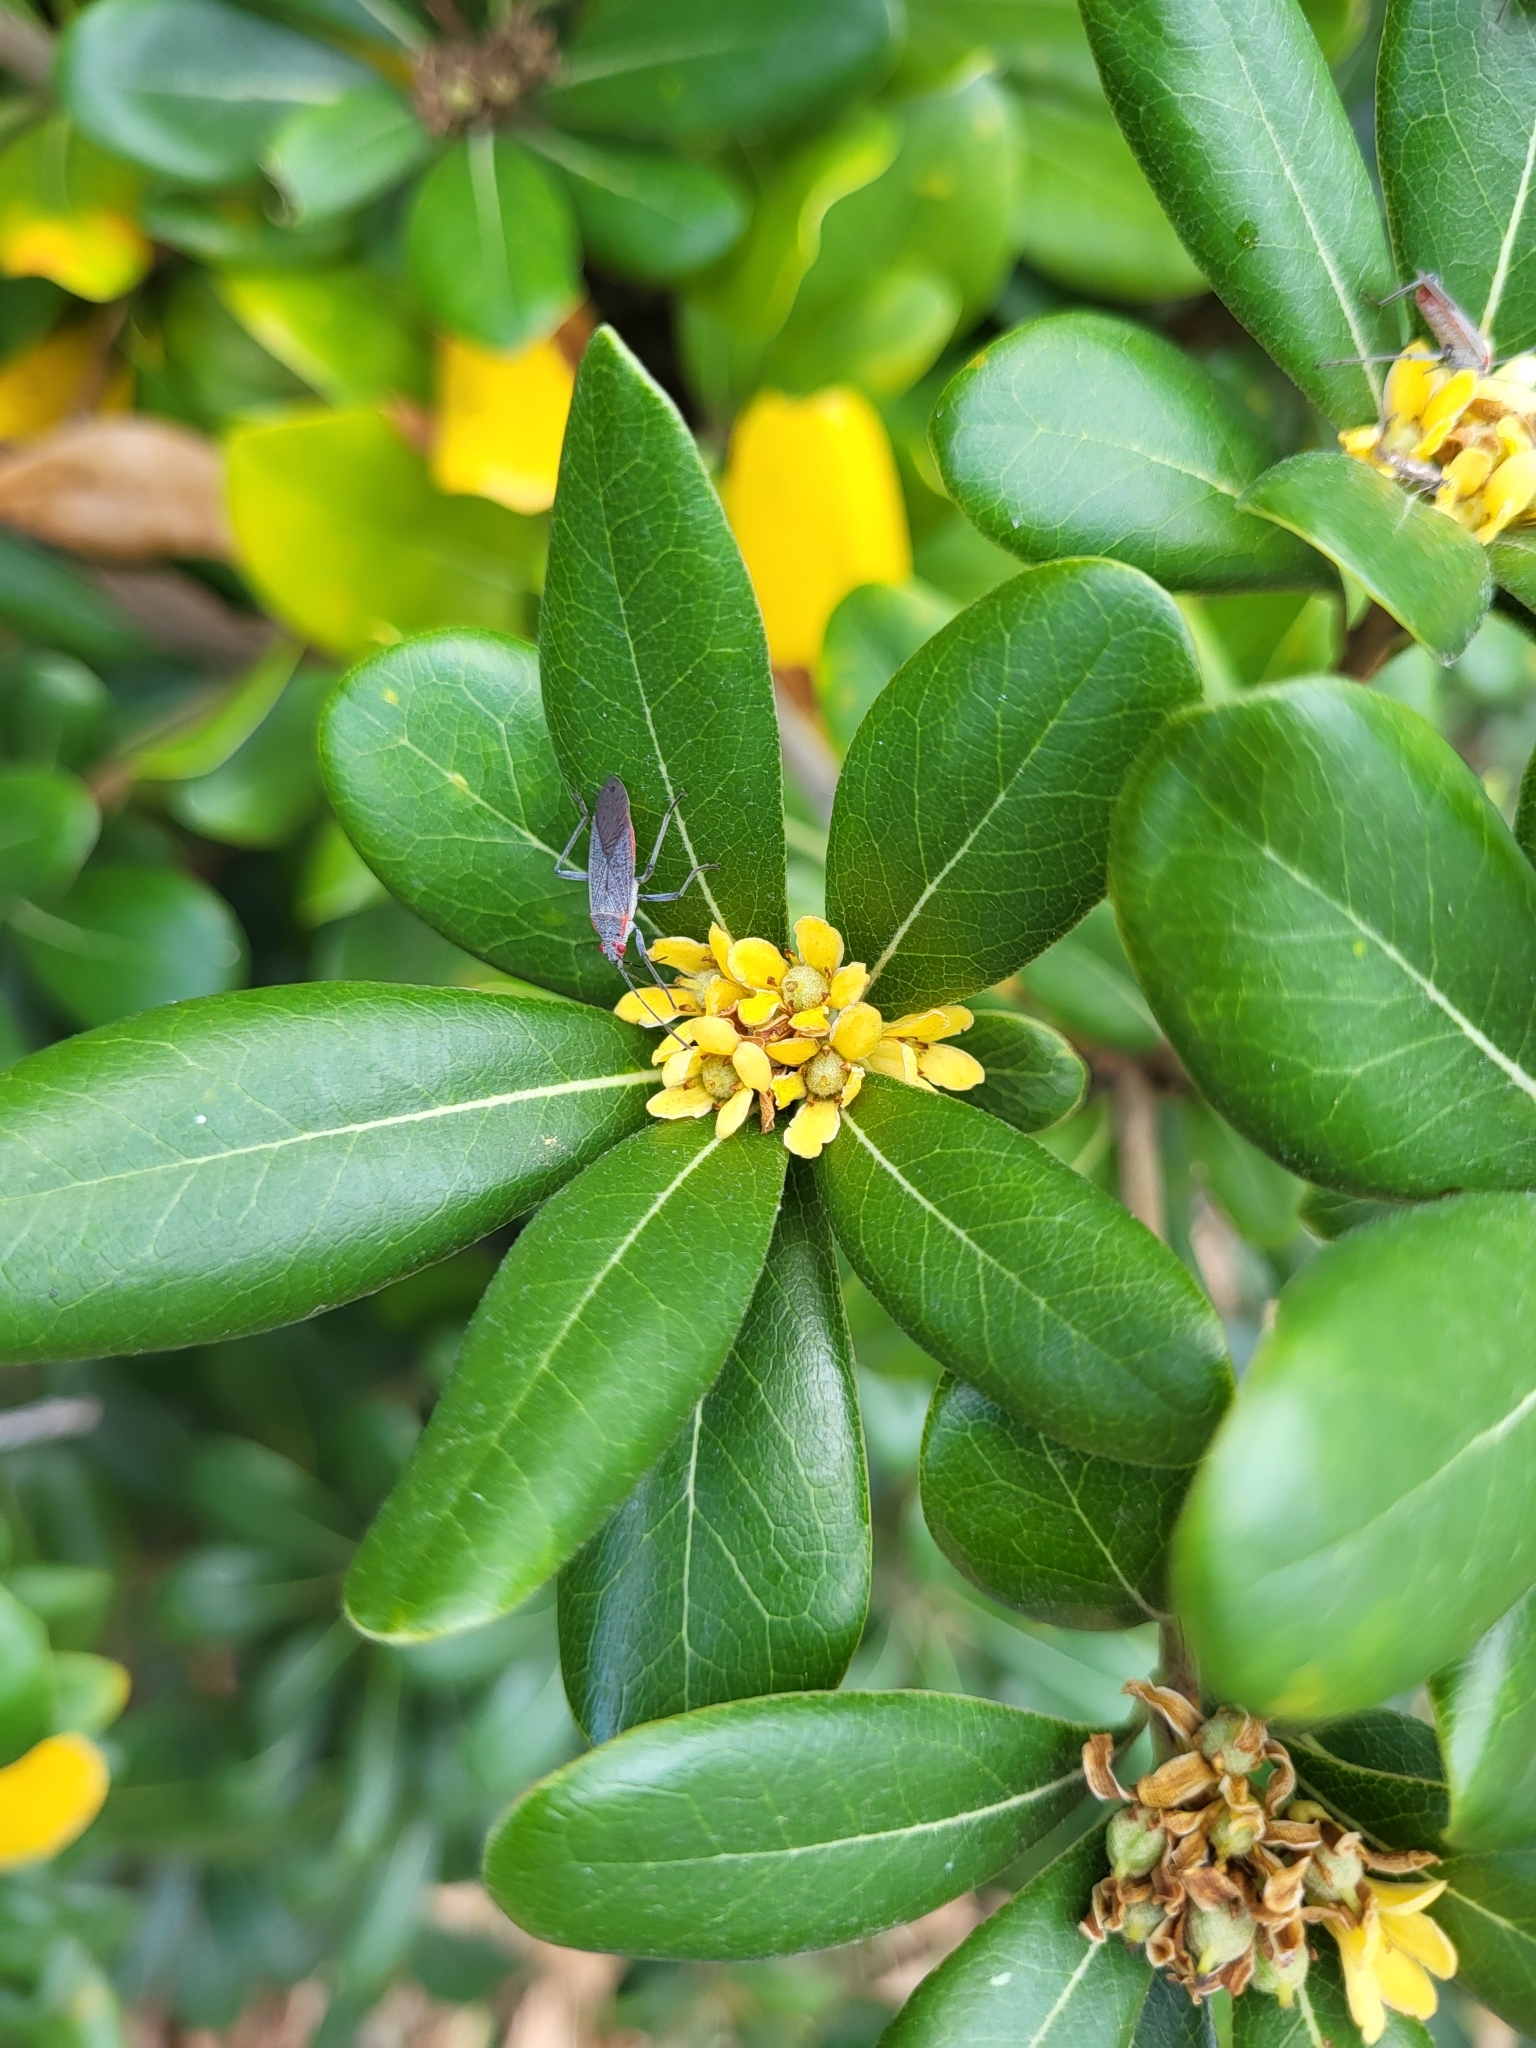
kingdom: Plantae
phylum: Tracheophyta
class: Magnoliopsida
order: Apiales
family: Pittosporaceae
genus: Pittosporum
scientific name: Pittosporum tobira
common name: Japanese cheesewood
